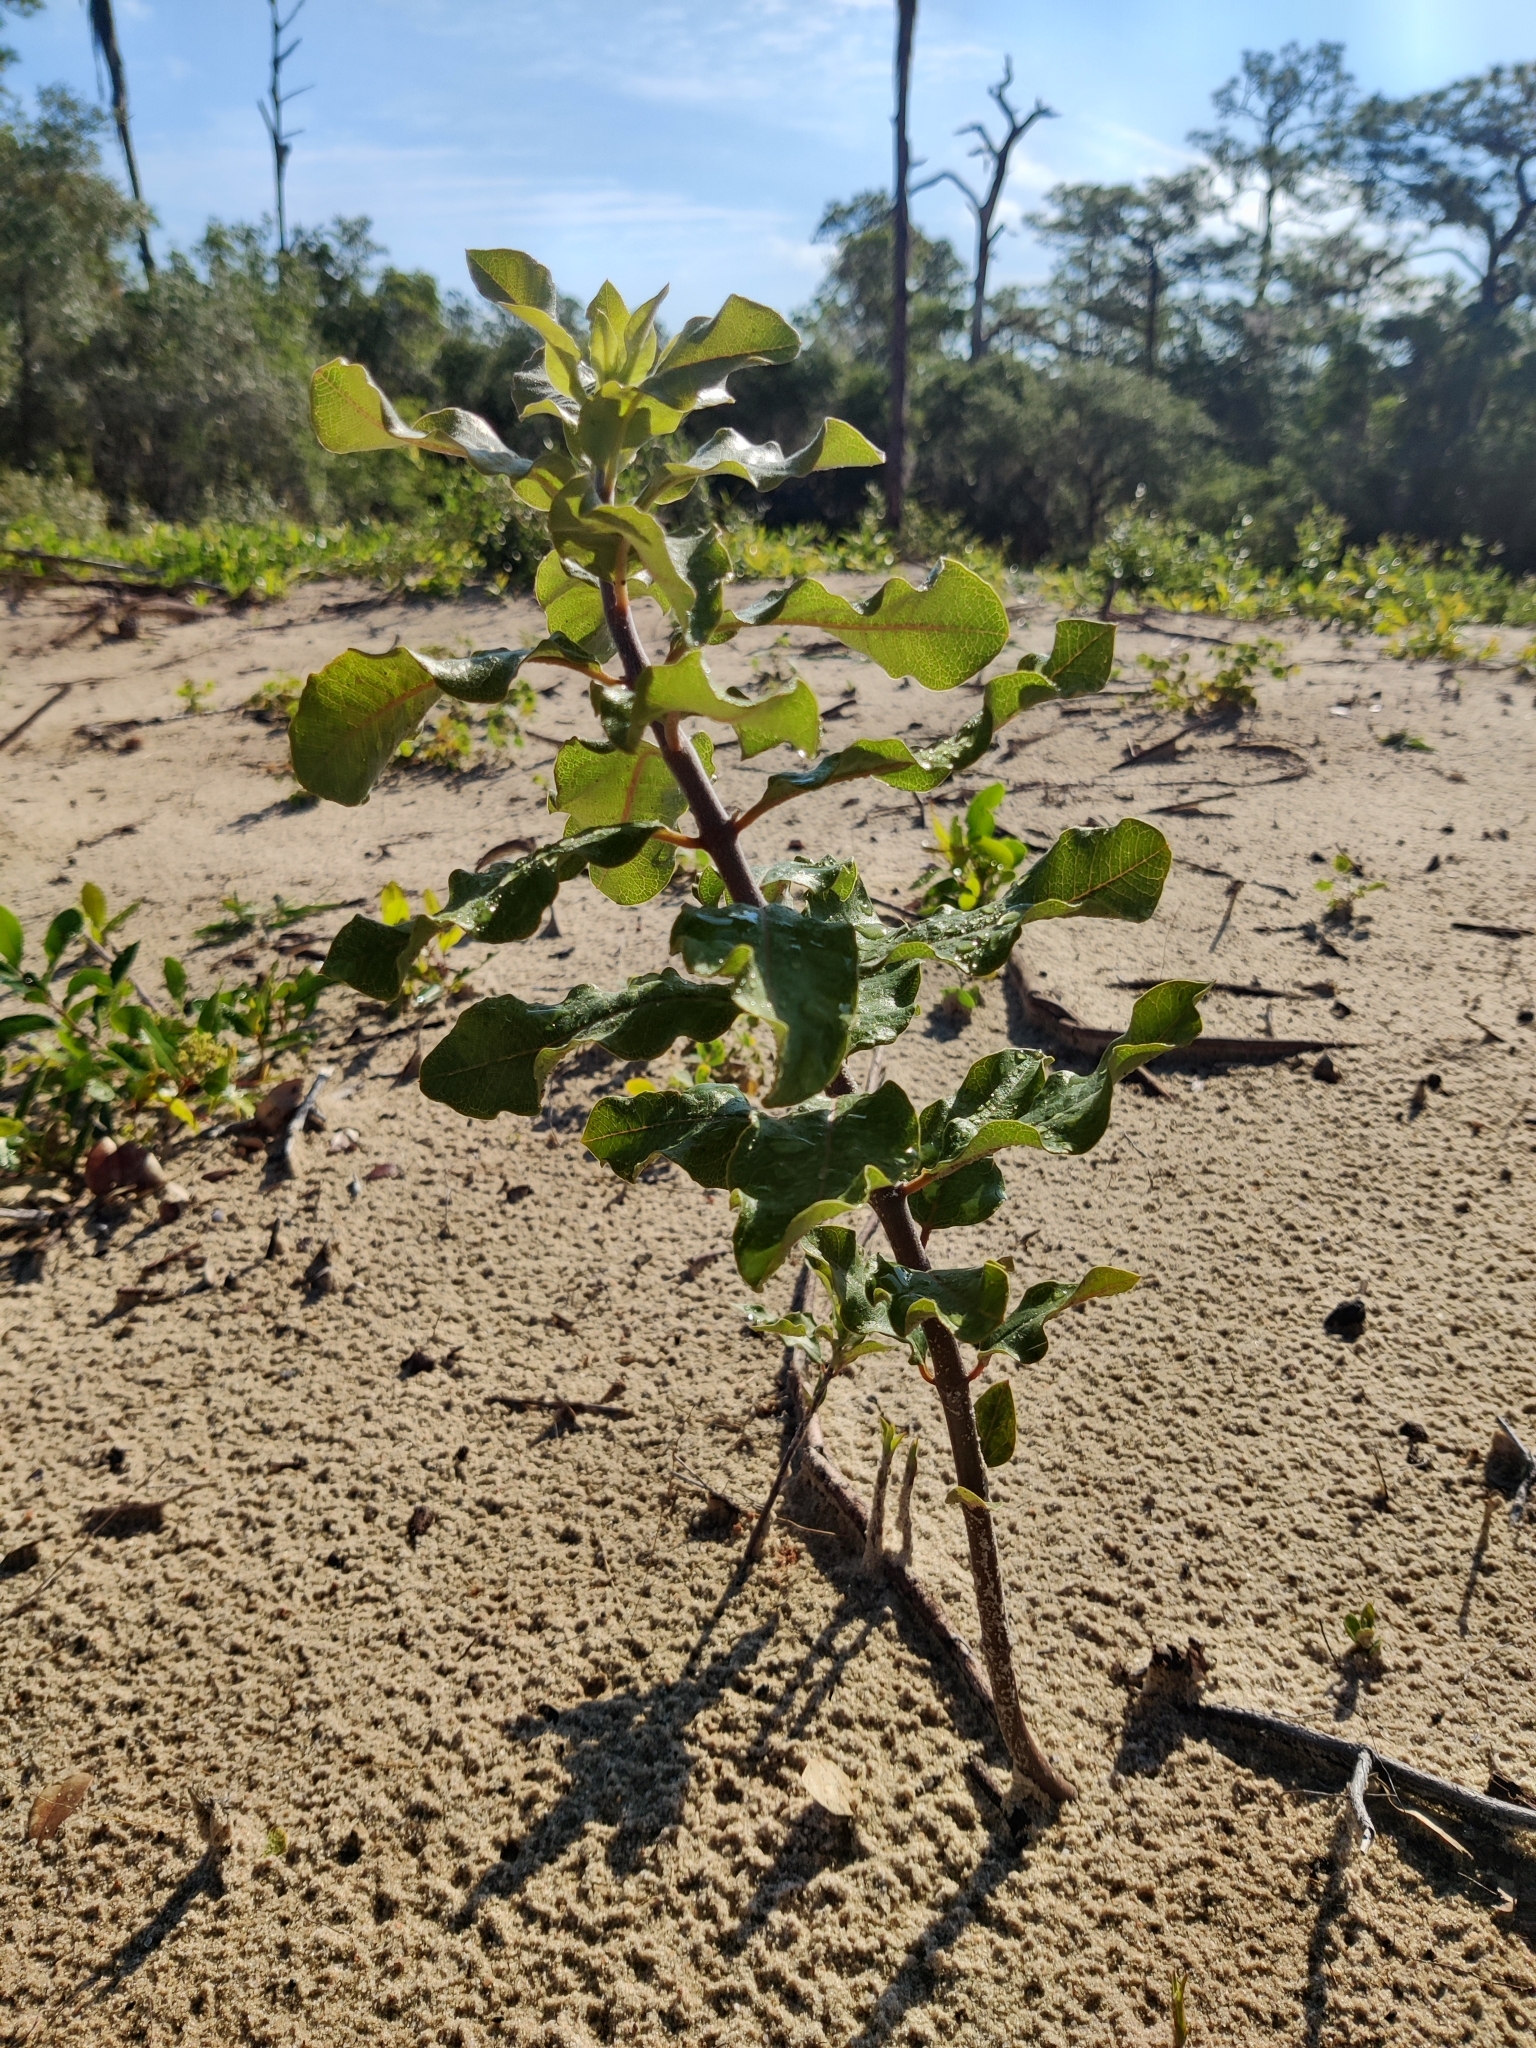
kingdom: Plantae
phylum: Tracheophyta
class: Magnoliopsida
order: Gentianales
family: Apocynaceae
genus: Asclepias
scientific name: Asclepias tomentosa
